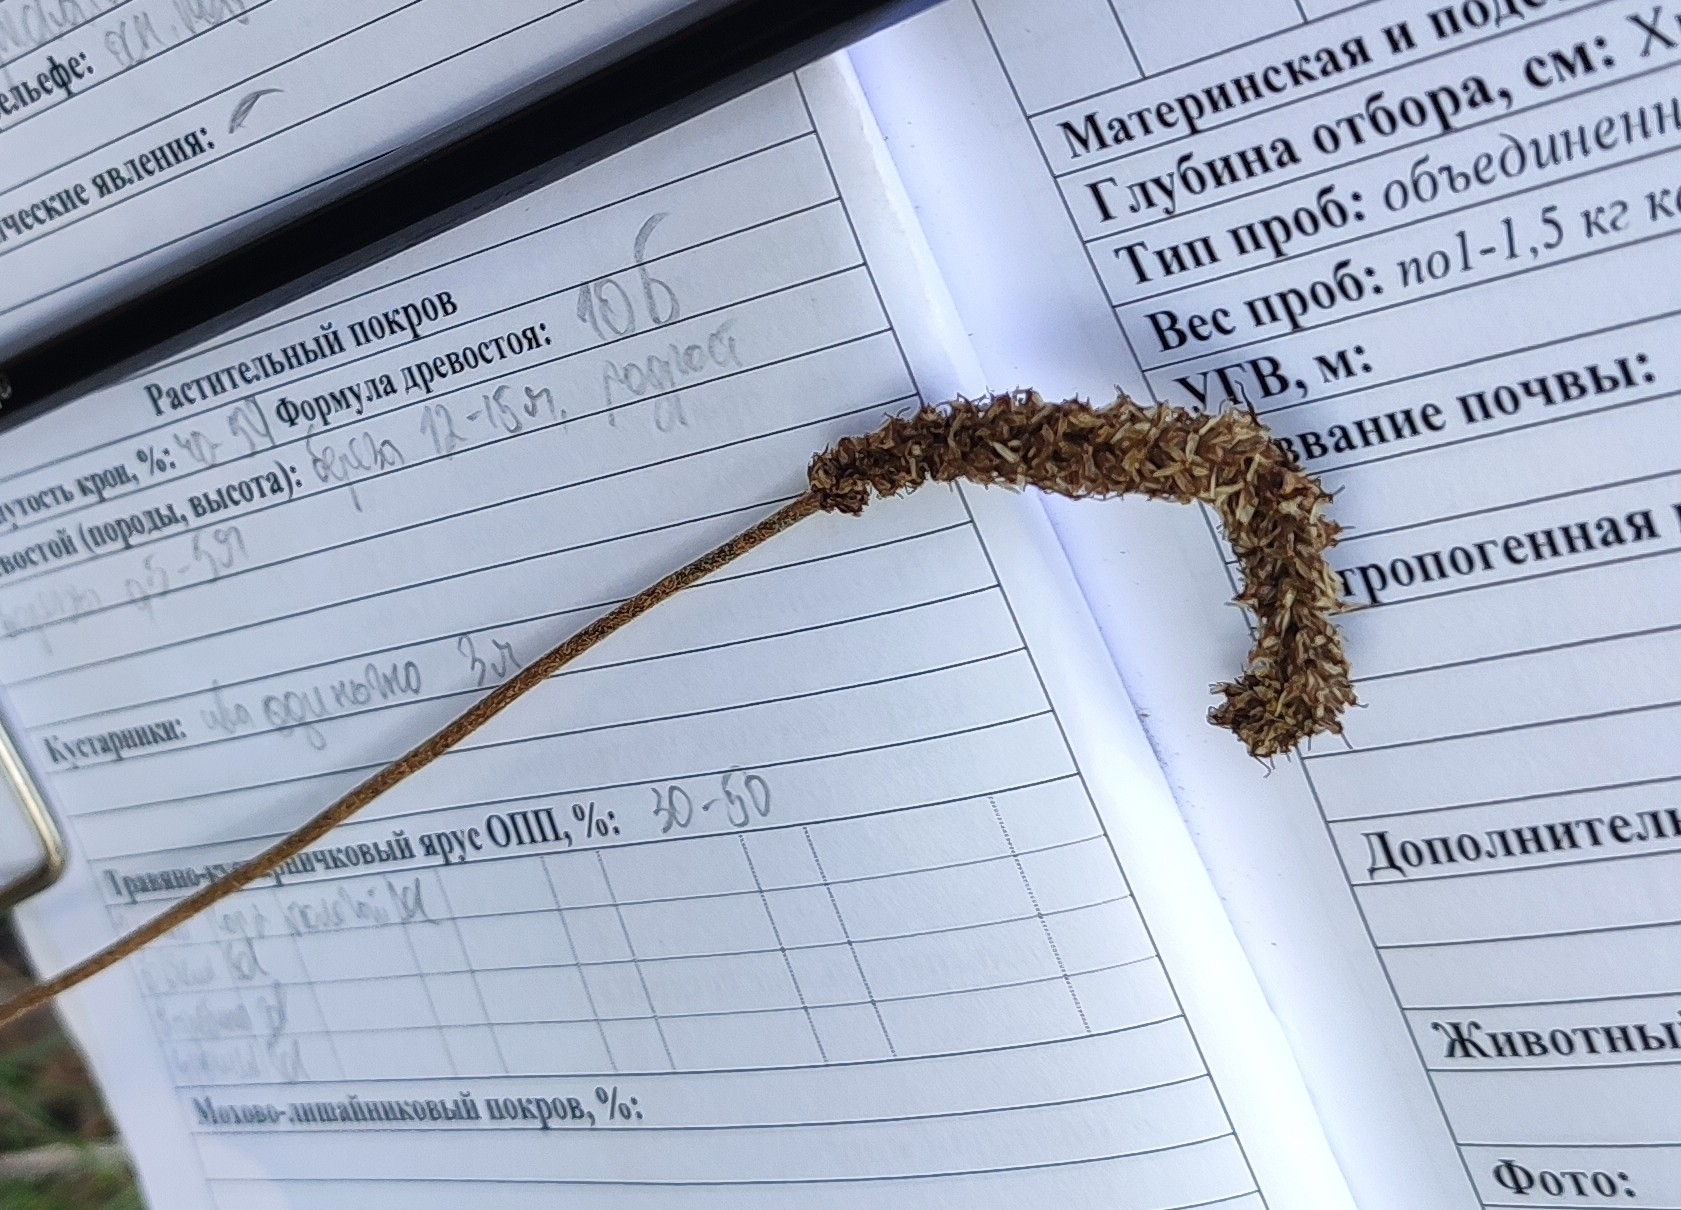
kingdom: Plantae
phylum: Tracheophyta
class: Magnoliopsida
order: Lamiales
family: Plantaginaceae
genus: Plantago
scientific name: Plantago urvillei
